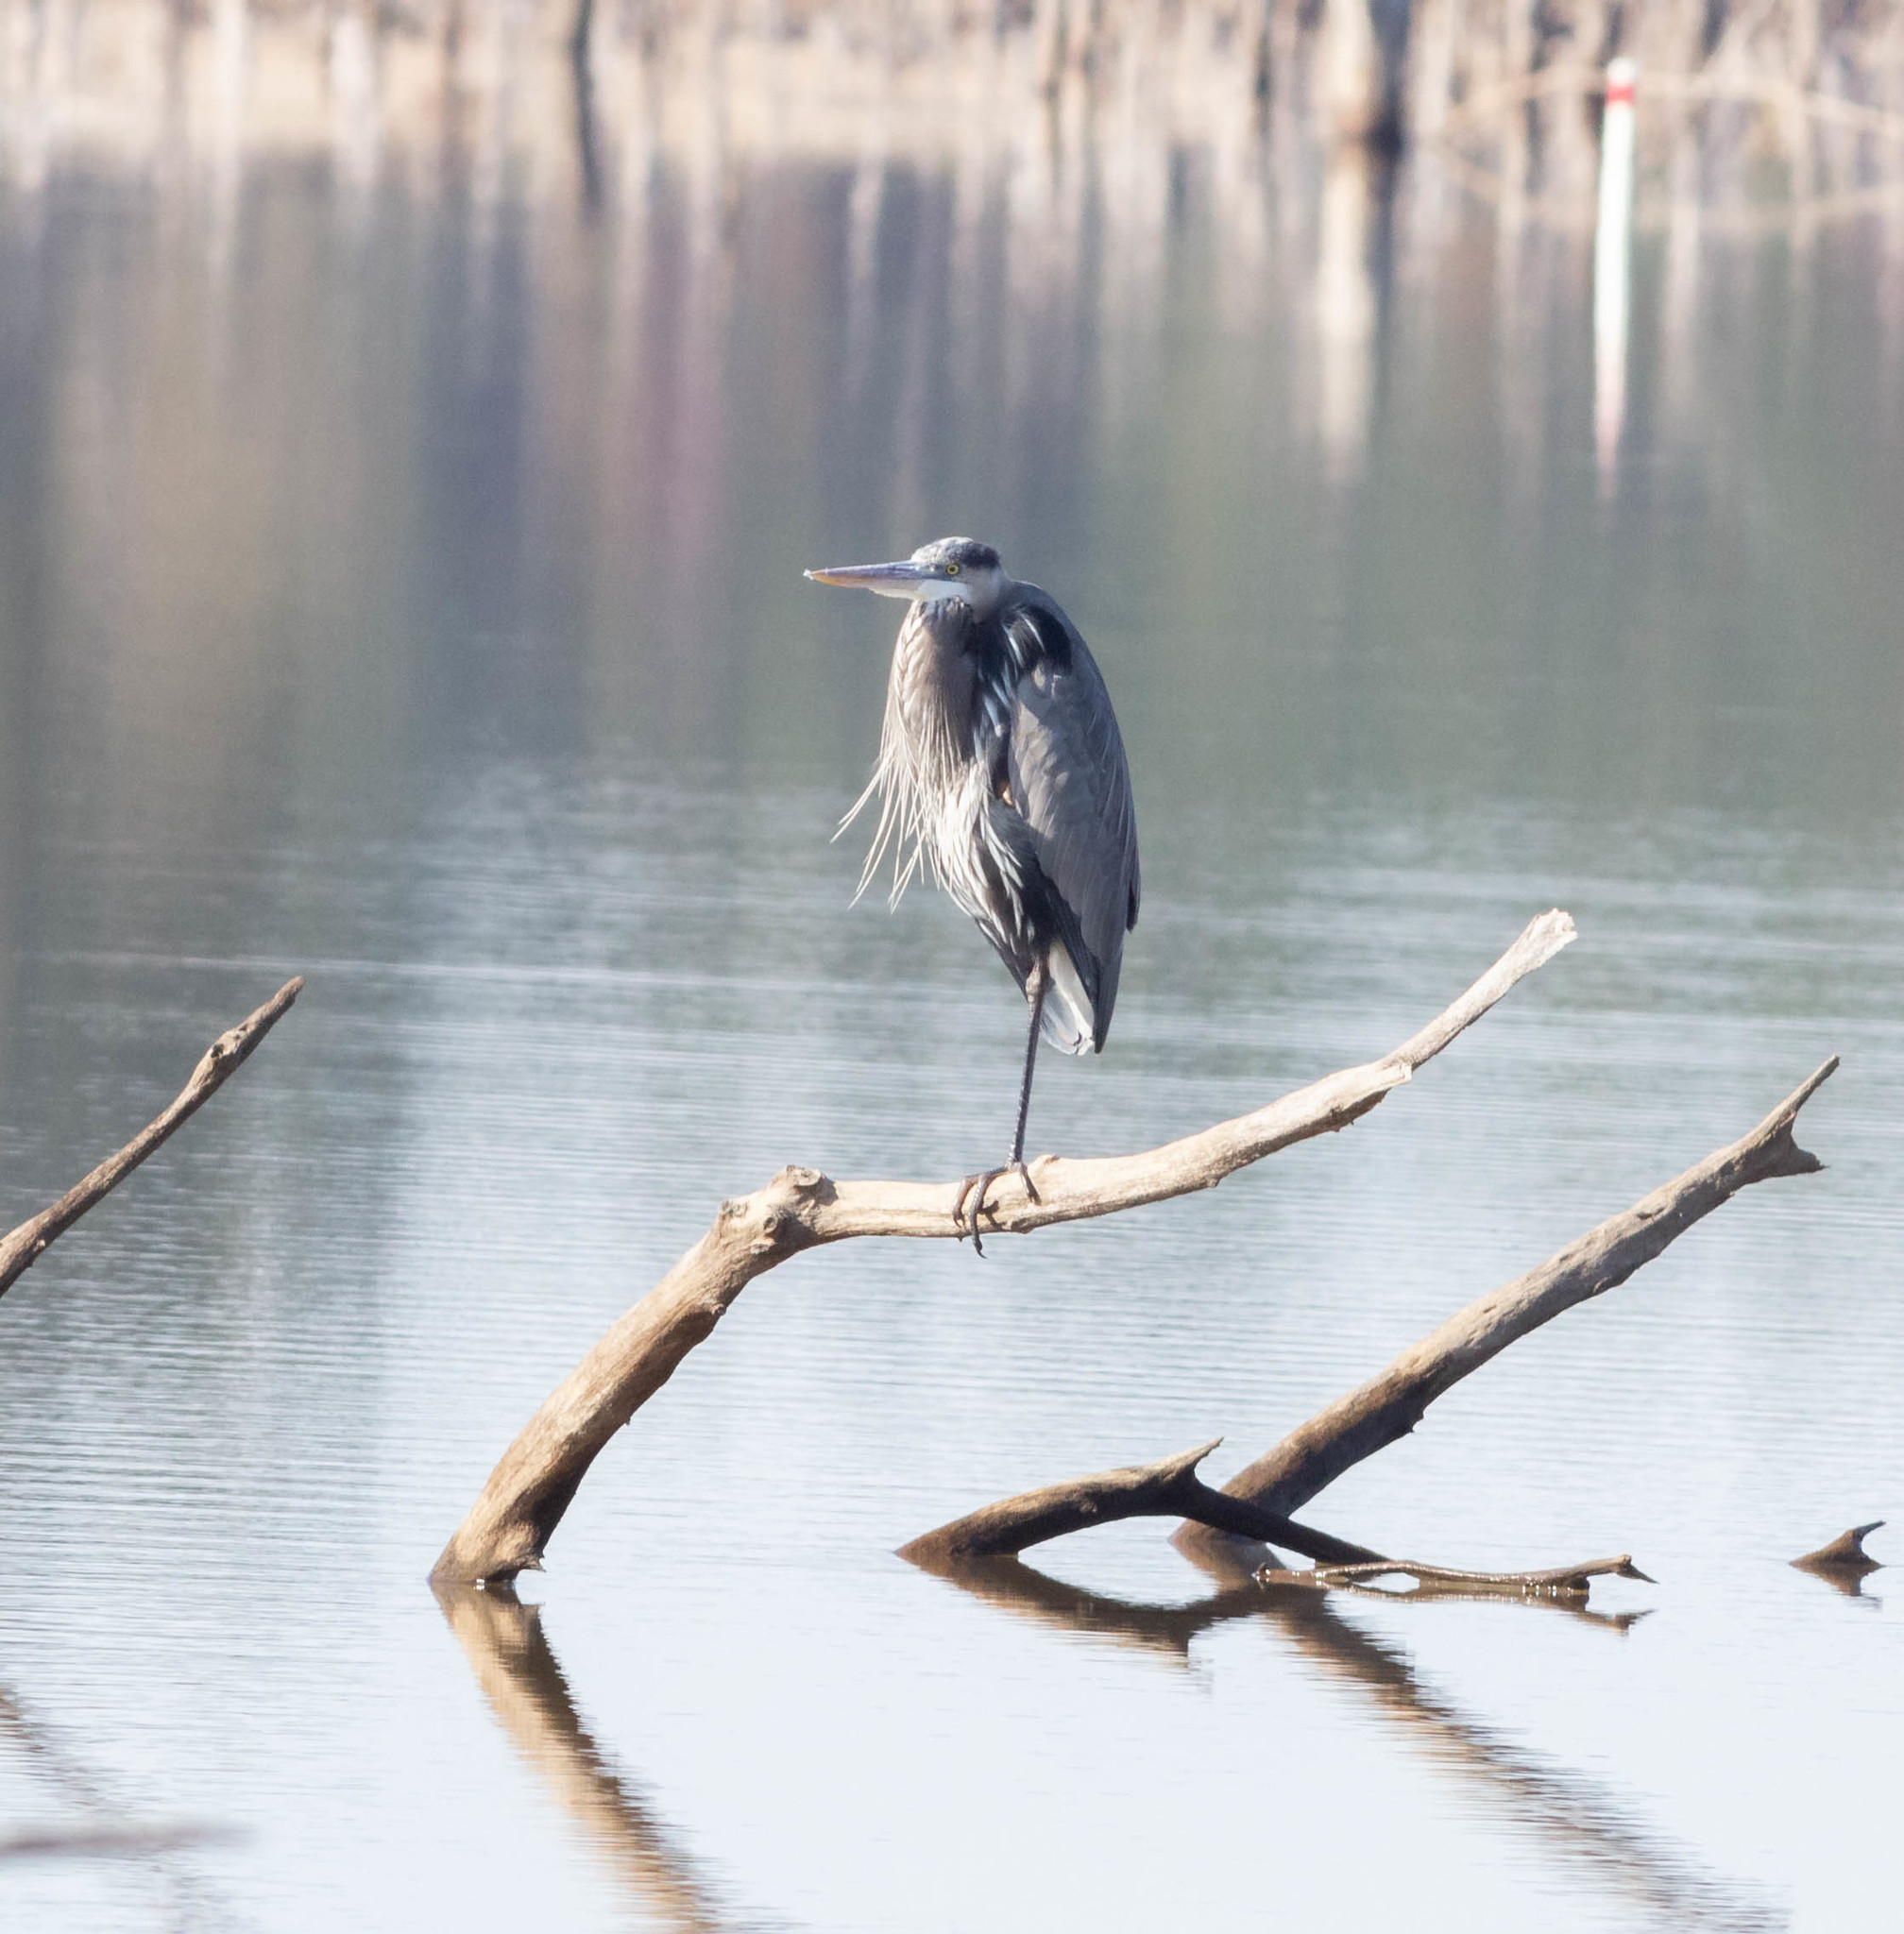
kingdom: Animalia
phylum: Chordata
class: Aves
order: Pelecaniformes
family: Ardeidae
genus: Ardea
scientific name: Ardea herodias
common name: Great blue heron
